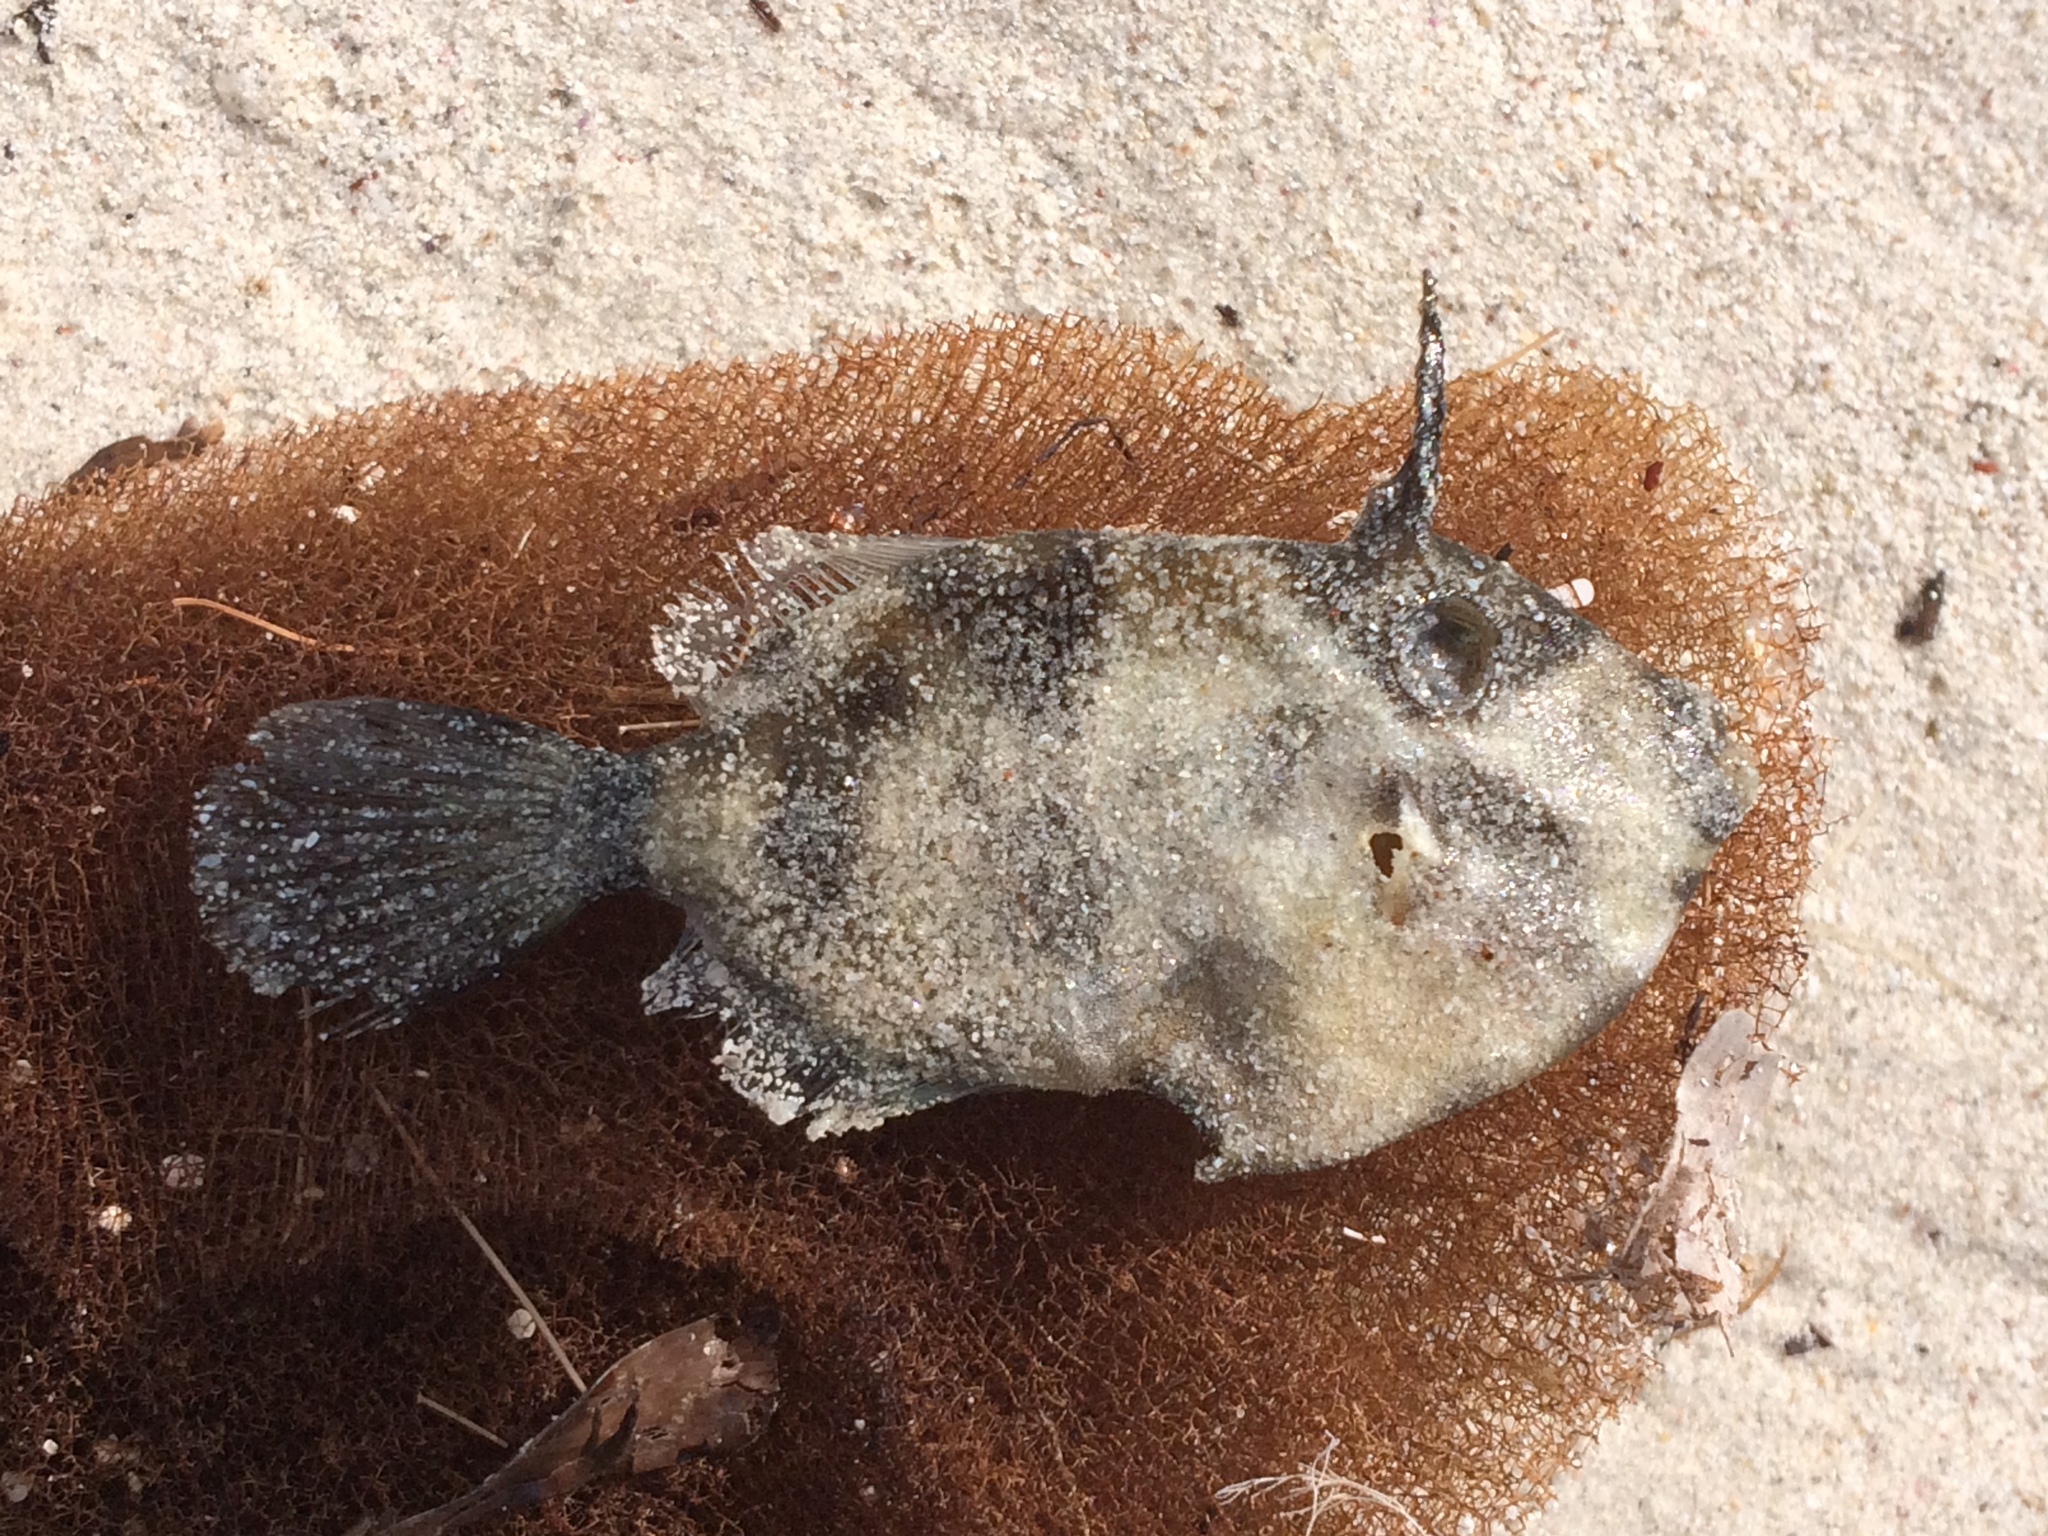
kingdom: Animalia
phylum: Chordata
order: Tetraodontiformes
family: Monacanthidae
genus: Scobinichthys
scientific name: Scobinichthys granulatus
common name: Rough leatherjacket
